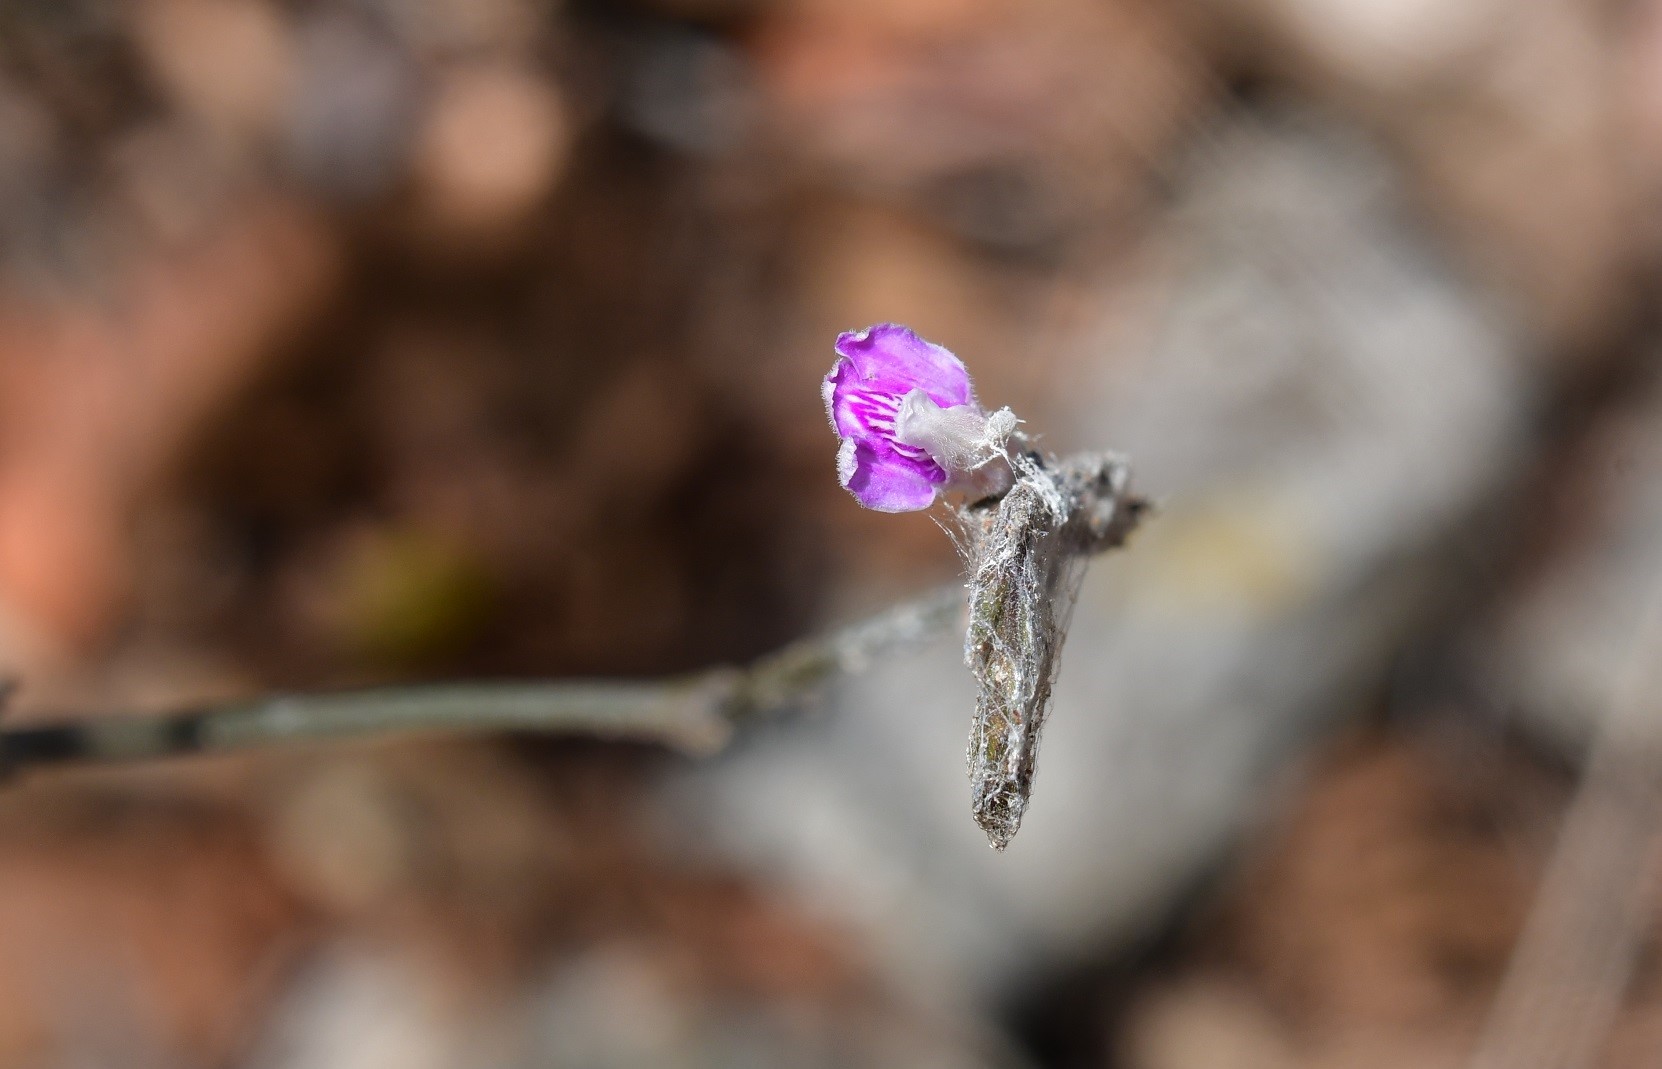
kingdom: Plantae
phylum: Tracheophyta
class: Magnoliopsida
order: Lamiales
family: Acanthaceae
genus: Dianthera
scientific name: Dianthera breviflora
